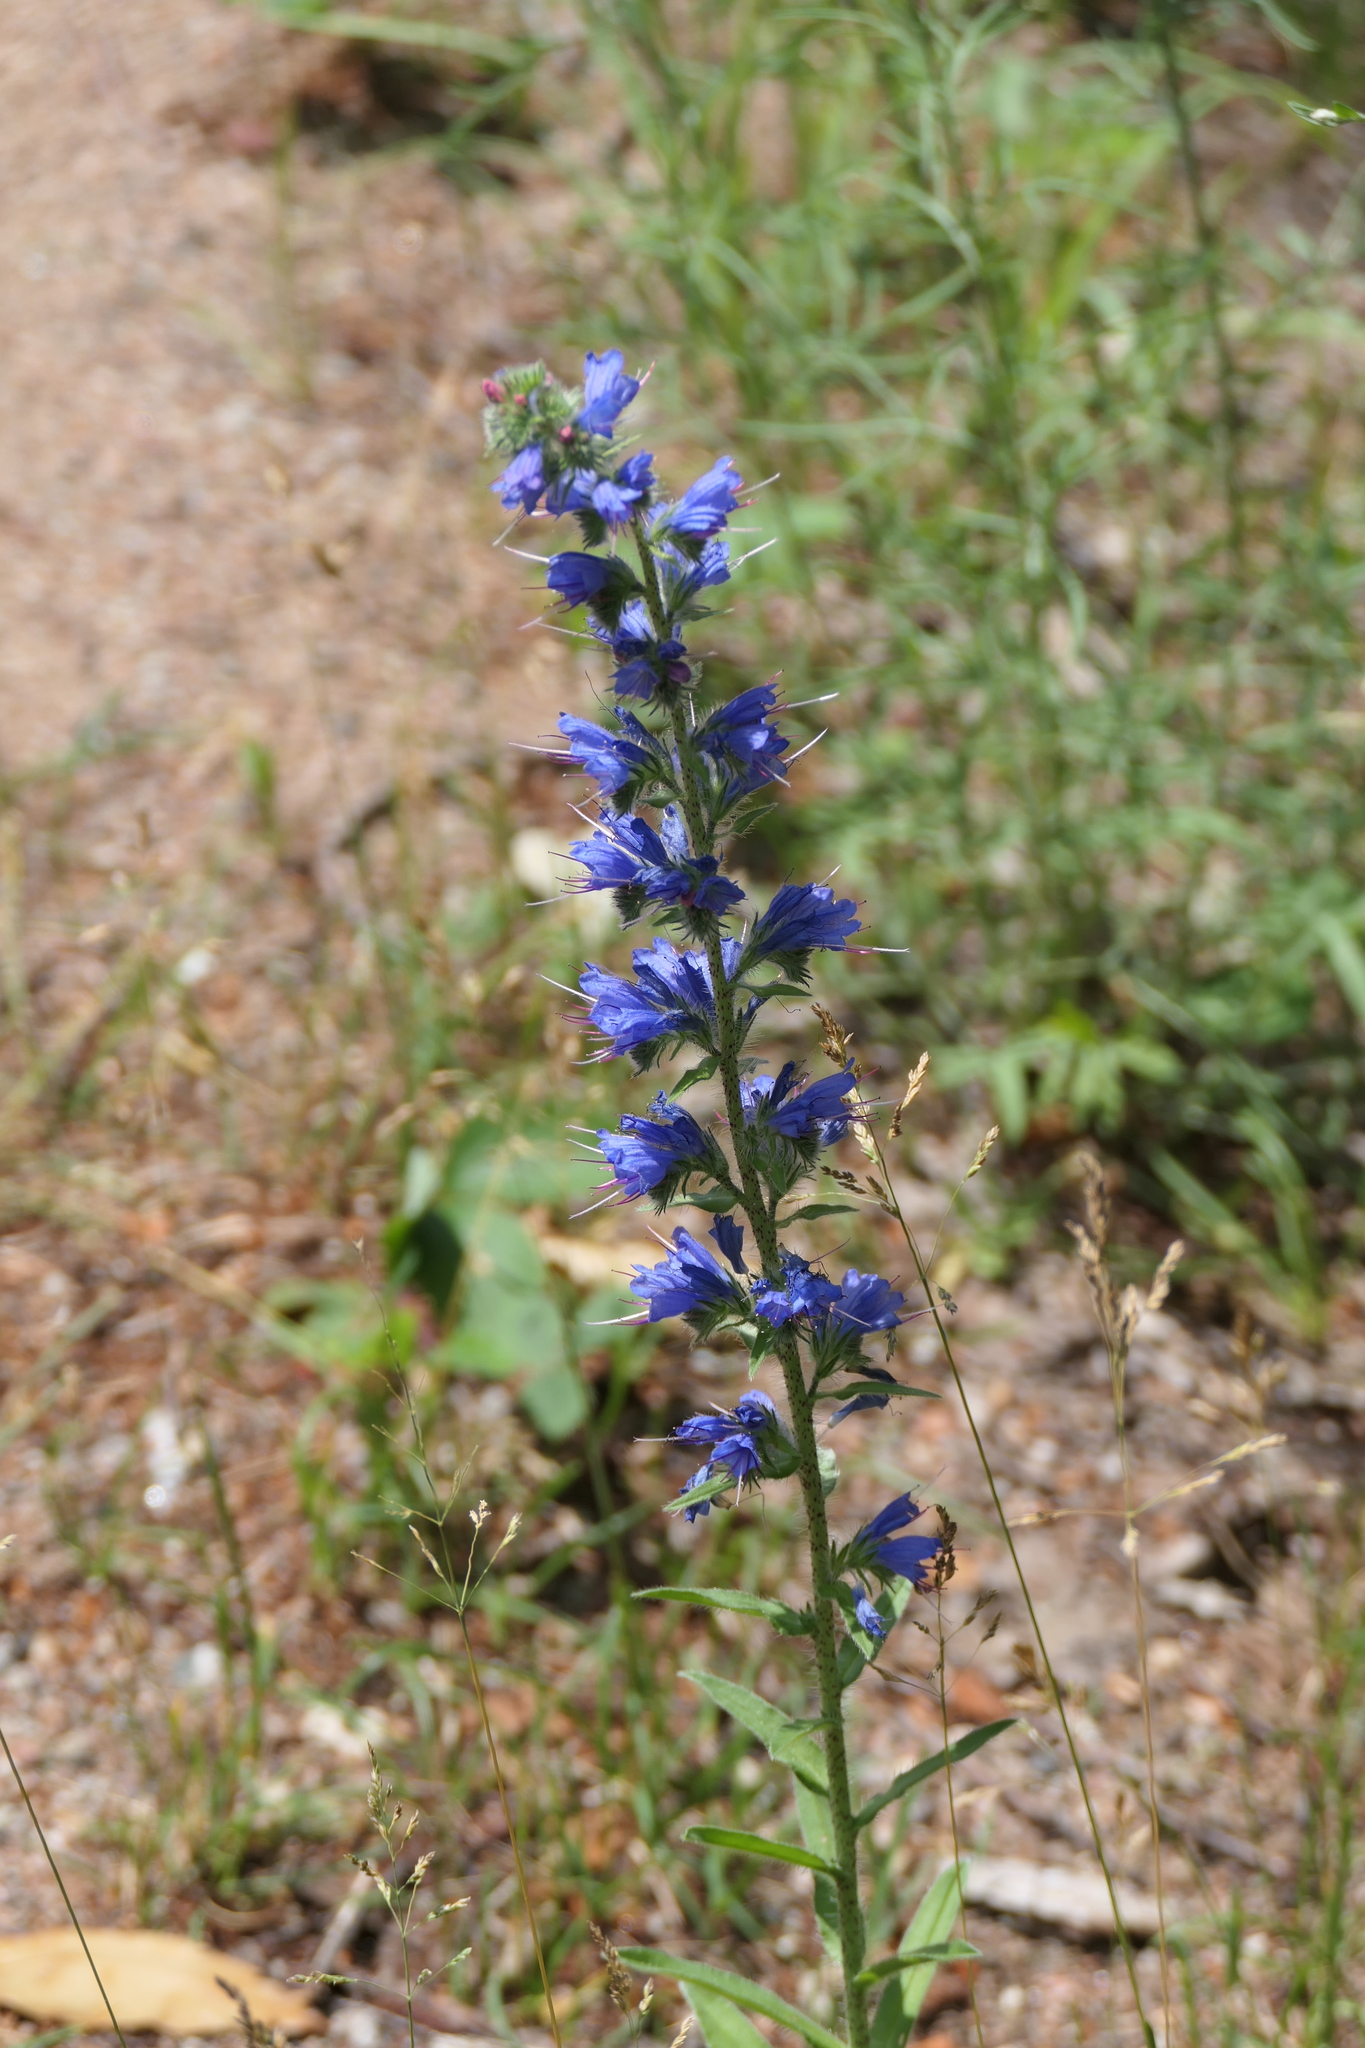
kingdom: Plantae
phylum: Tracheophyta
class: Magnoliopsida
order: Boraginales
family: Boraginaceae
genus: Echium
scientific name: Echium vulgare
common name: Common viper's bugloss
